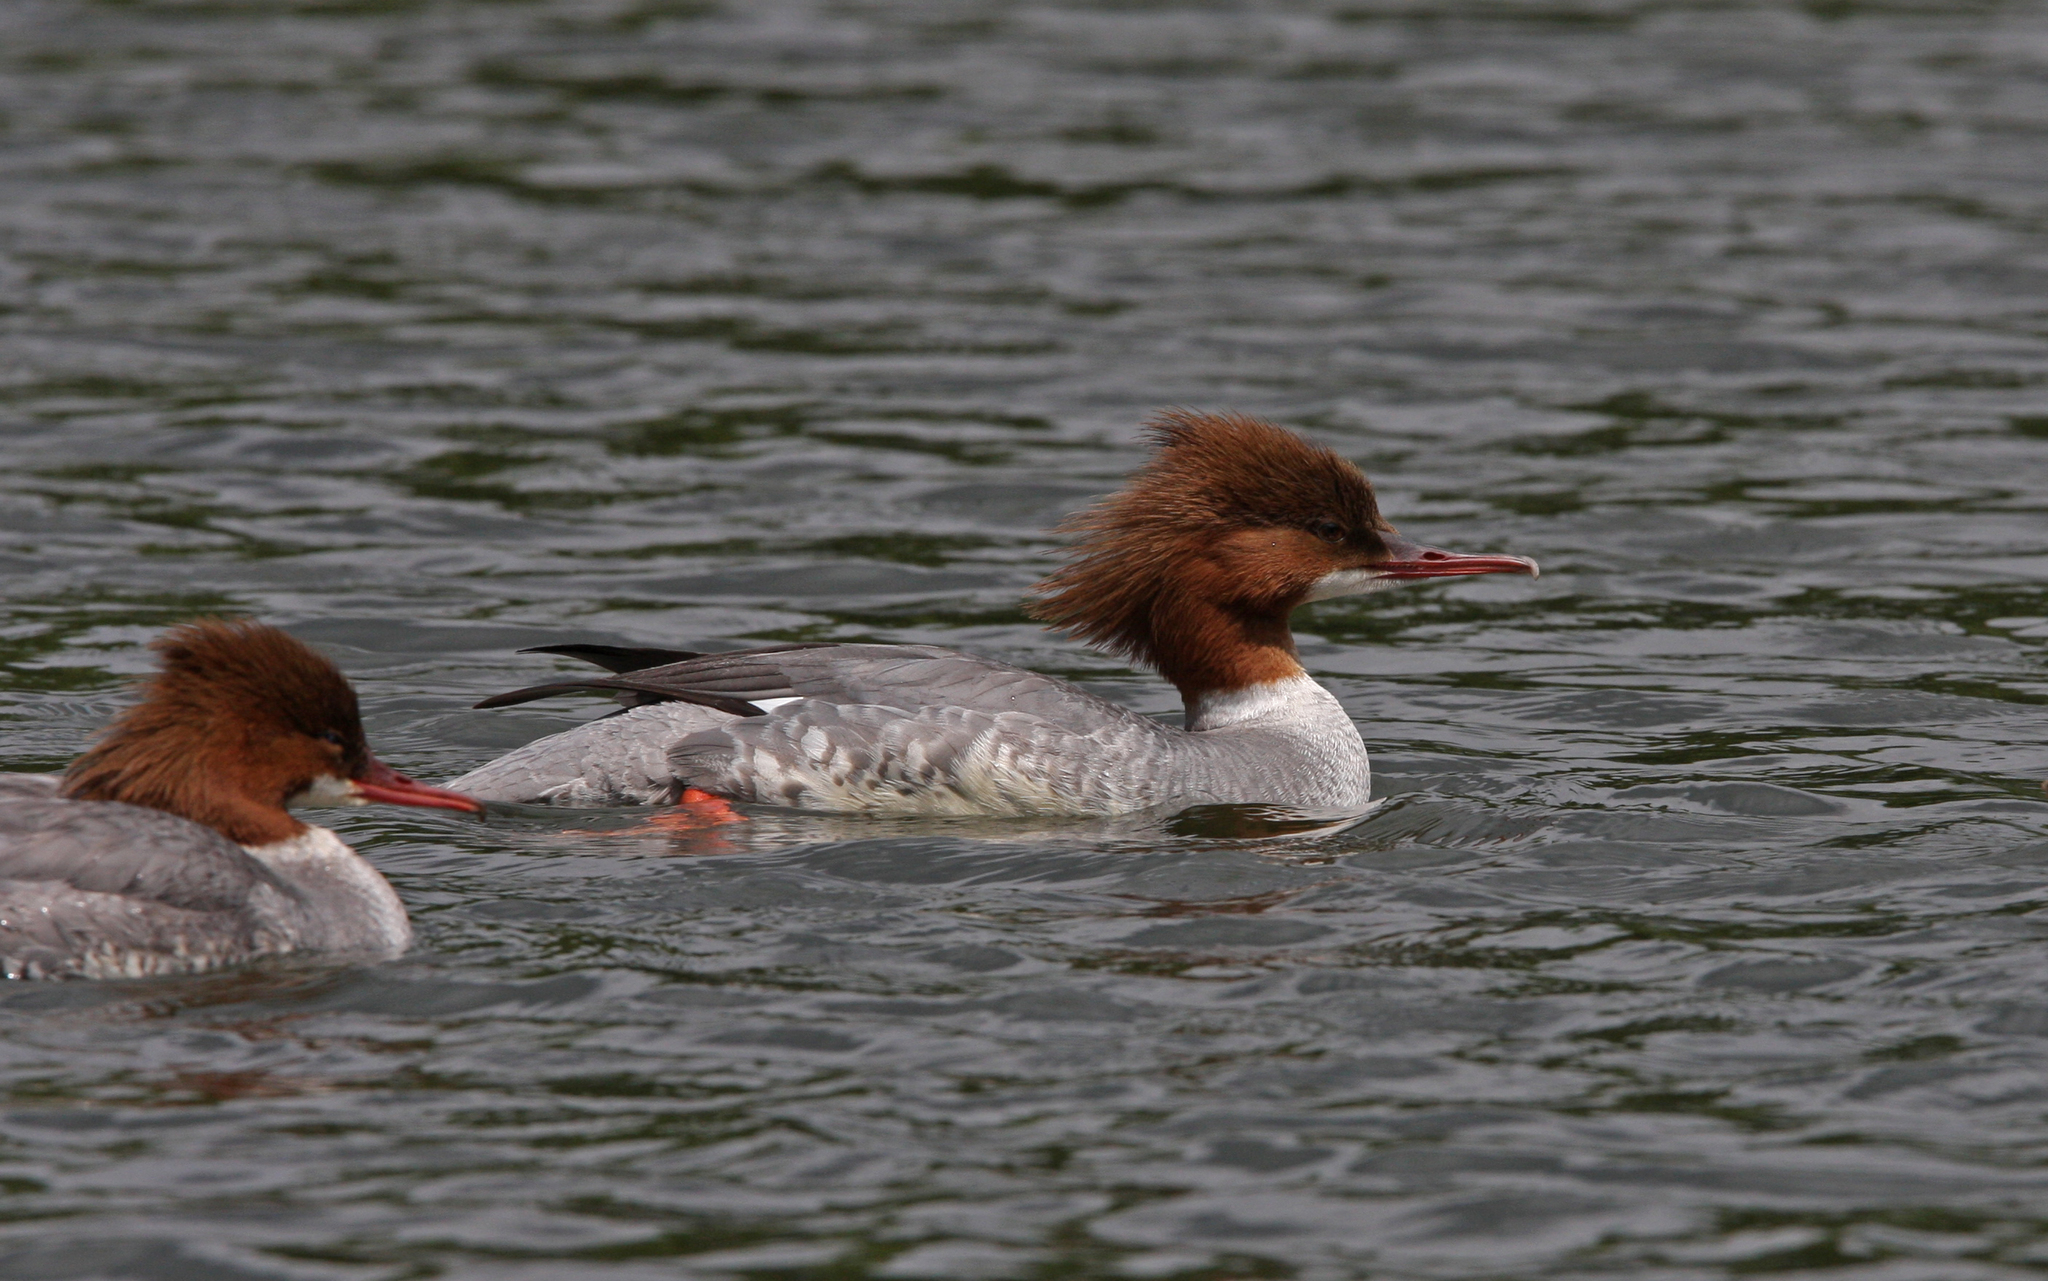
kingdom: Animalia
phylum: Chordata
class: Aves
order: Anseriformes
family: Anatidae
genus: Mergus
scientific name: Mergus merganser
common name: Common merganser
